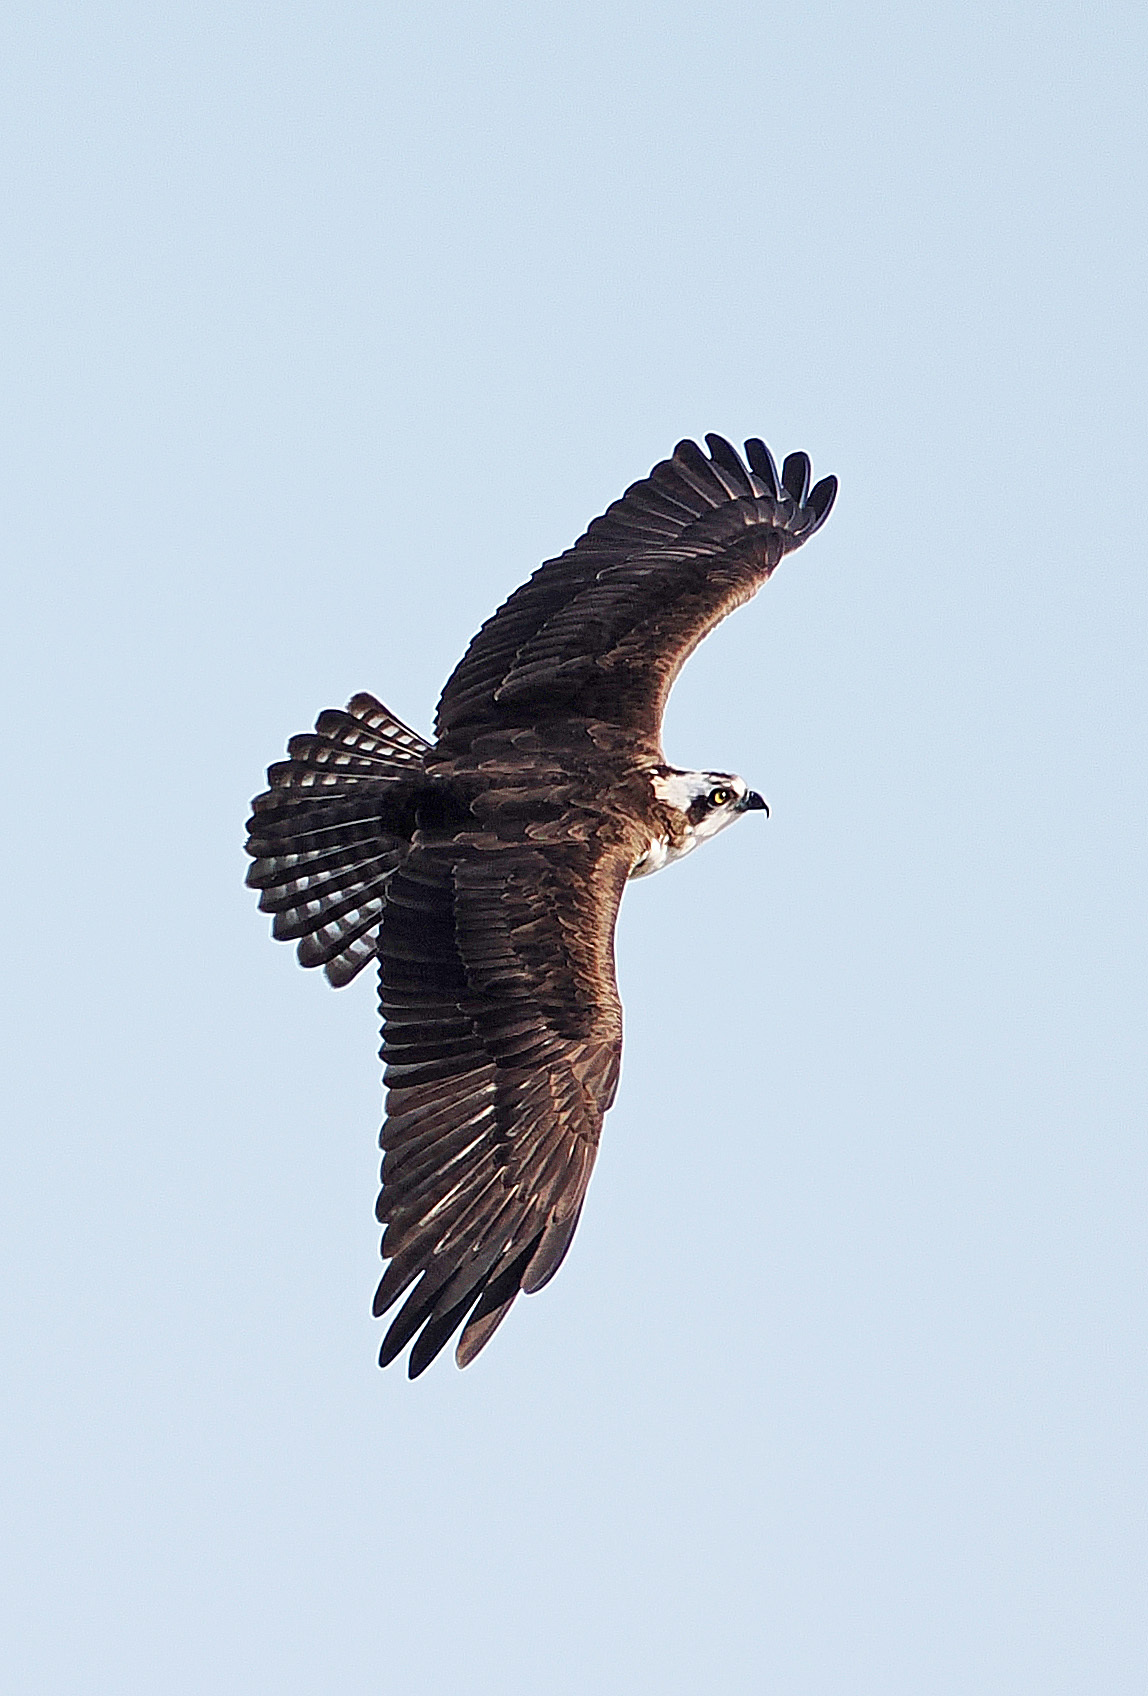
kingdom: Animalia
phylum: Chordata
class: Aves
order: Accipitriformes
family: Pandionidae
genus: Pandion
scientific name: Pandion haliaetus
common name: Osprey
